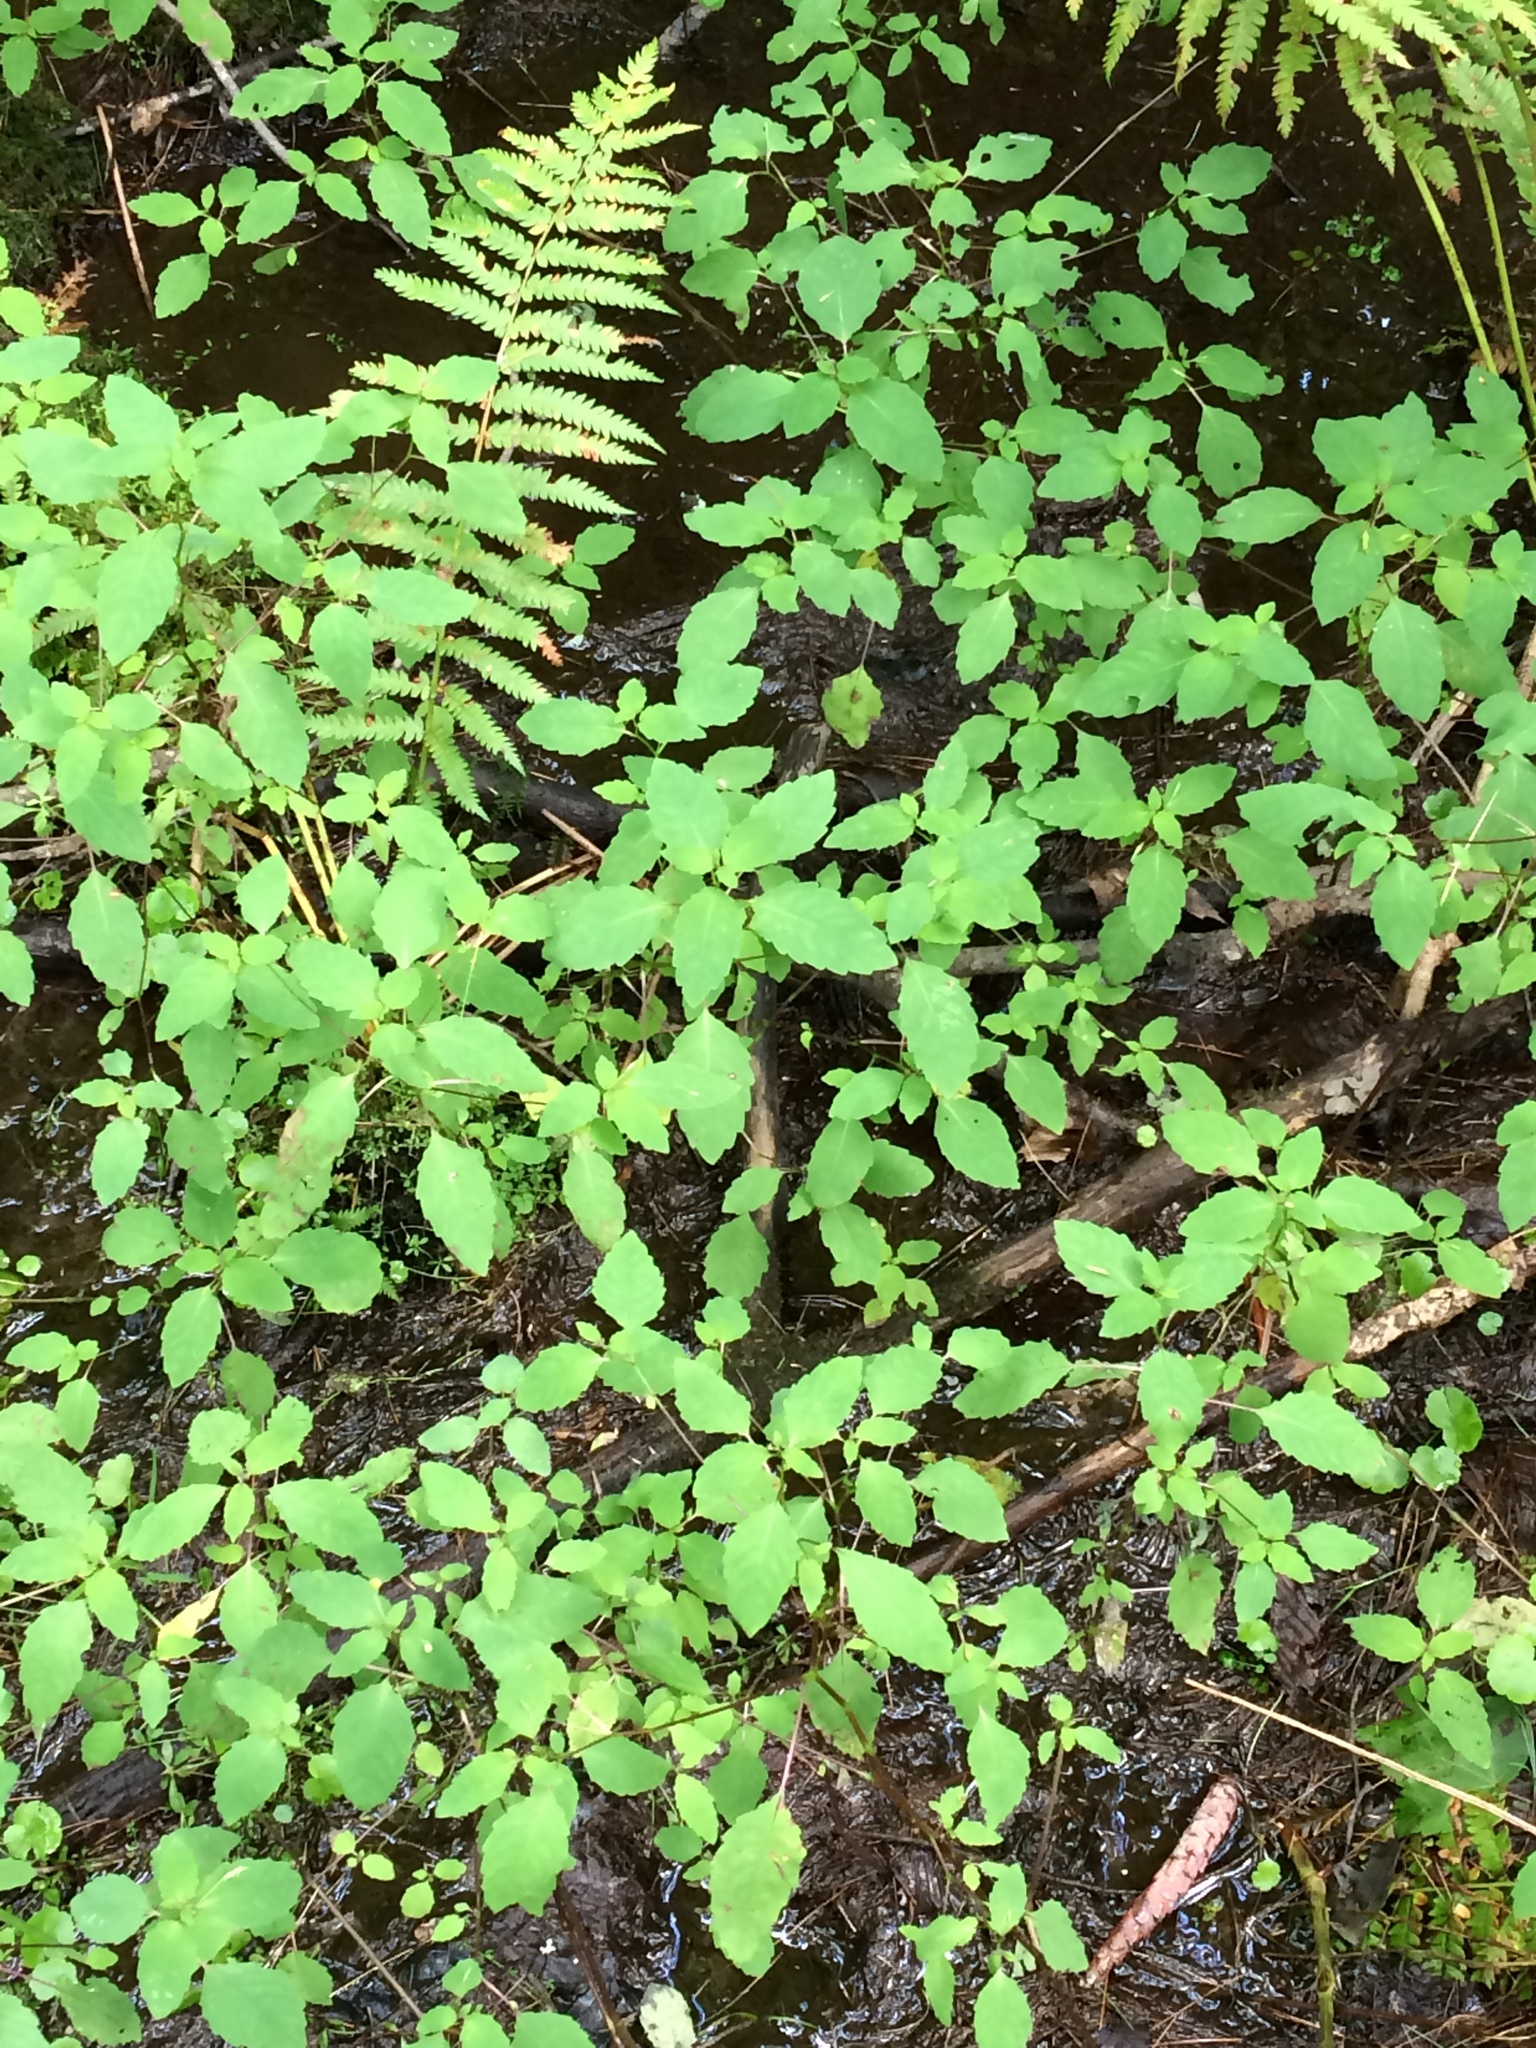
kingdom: Plantae
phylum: Tracheophyta
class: Magnoliopsida
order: Ericales
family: Balsaminaceae
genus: Impatiens
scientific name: Impatiens capensis
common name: Orange balsam
